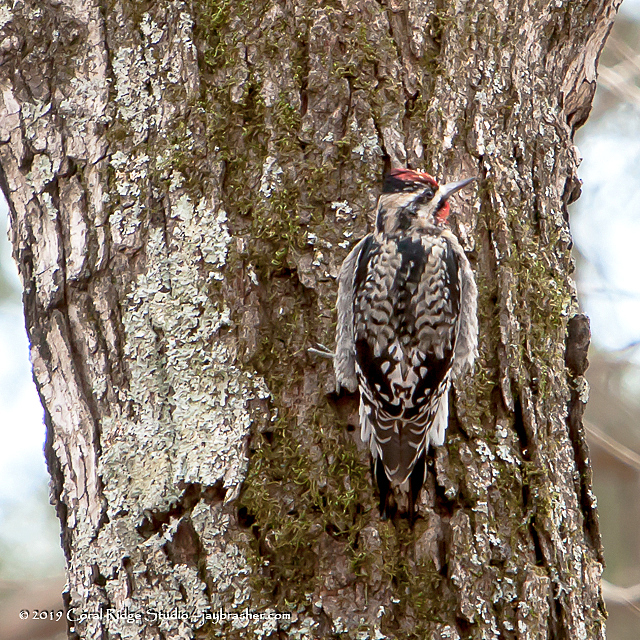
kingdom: Animalia
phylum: Chordata
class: Aves
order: Piciformes
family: Picidae
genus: Sphyrapicus
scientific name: Sphyrapicus varius
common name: Yellow-bellied sapsucker
